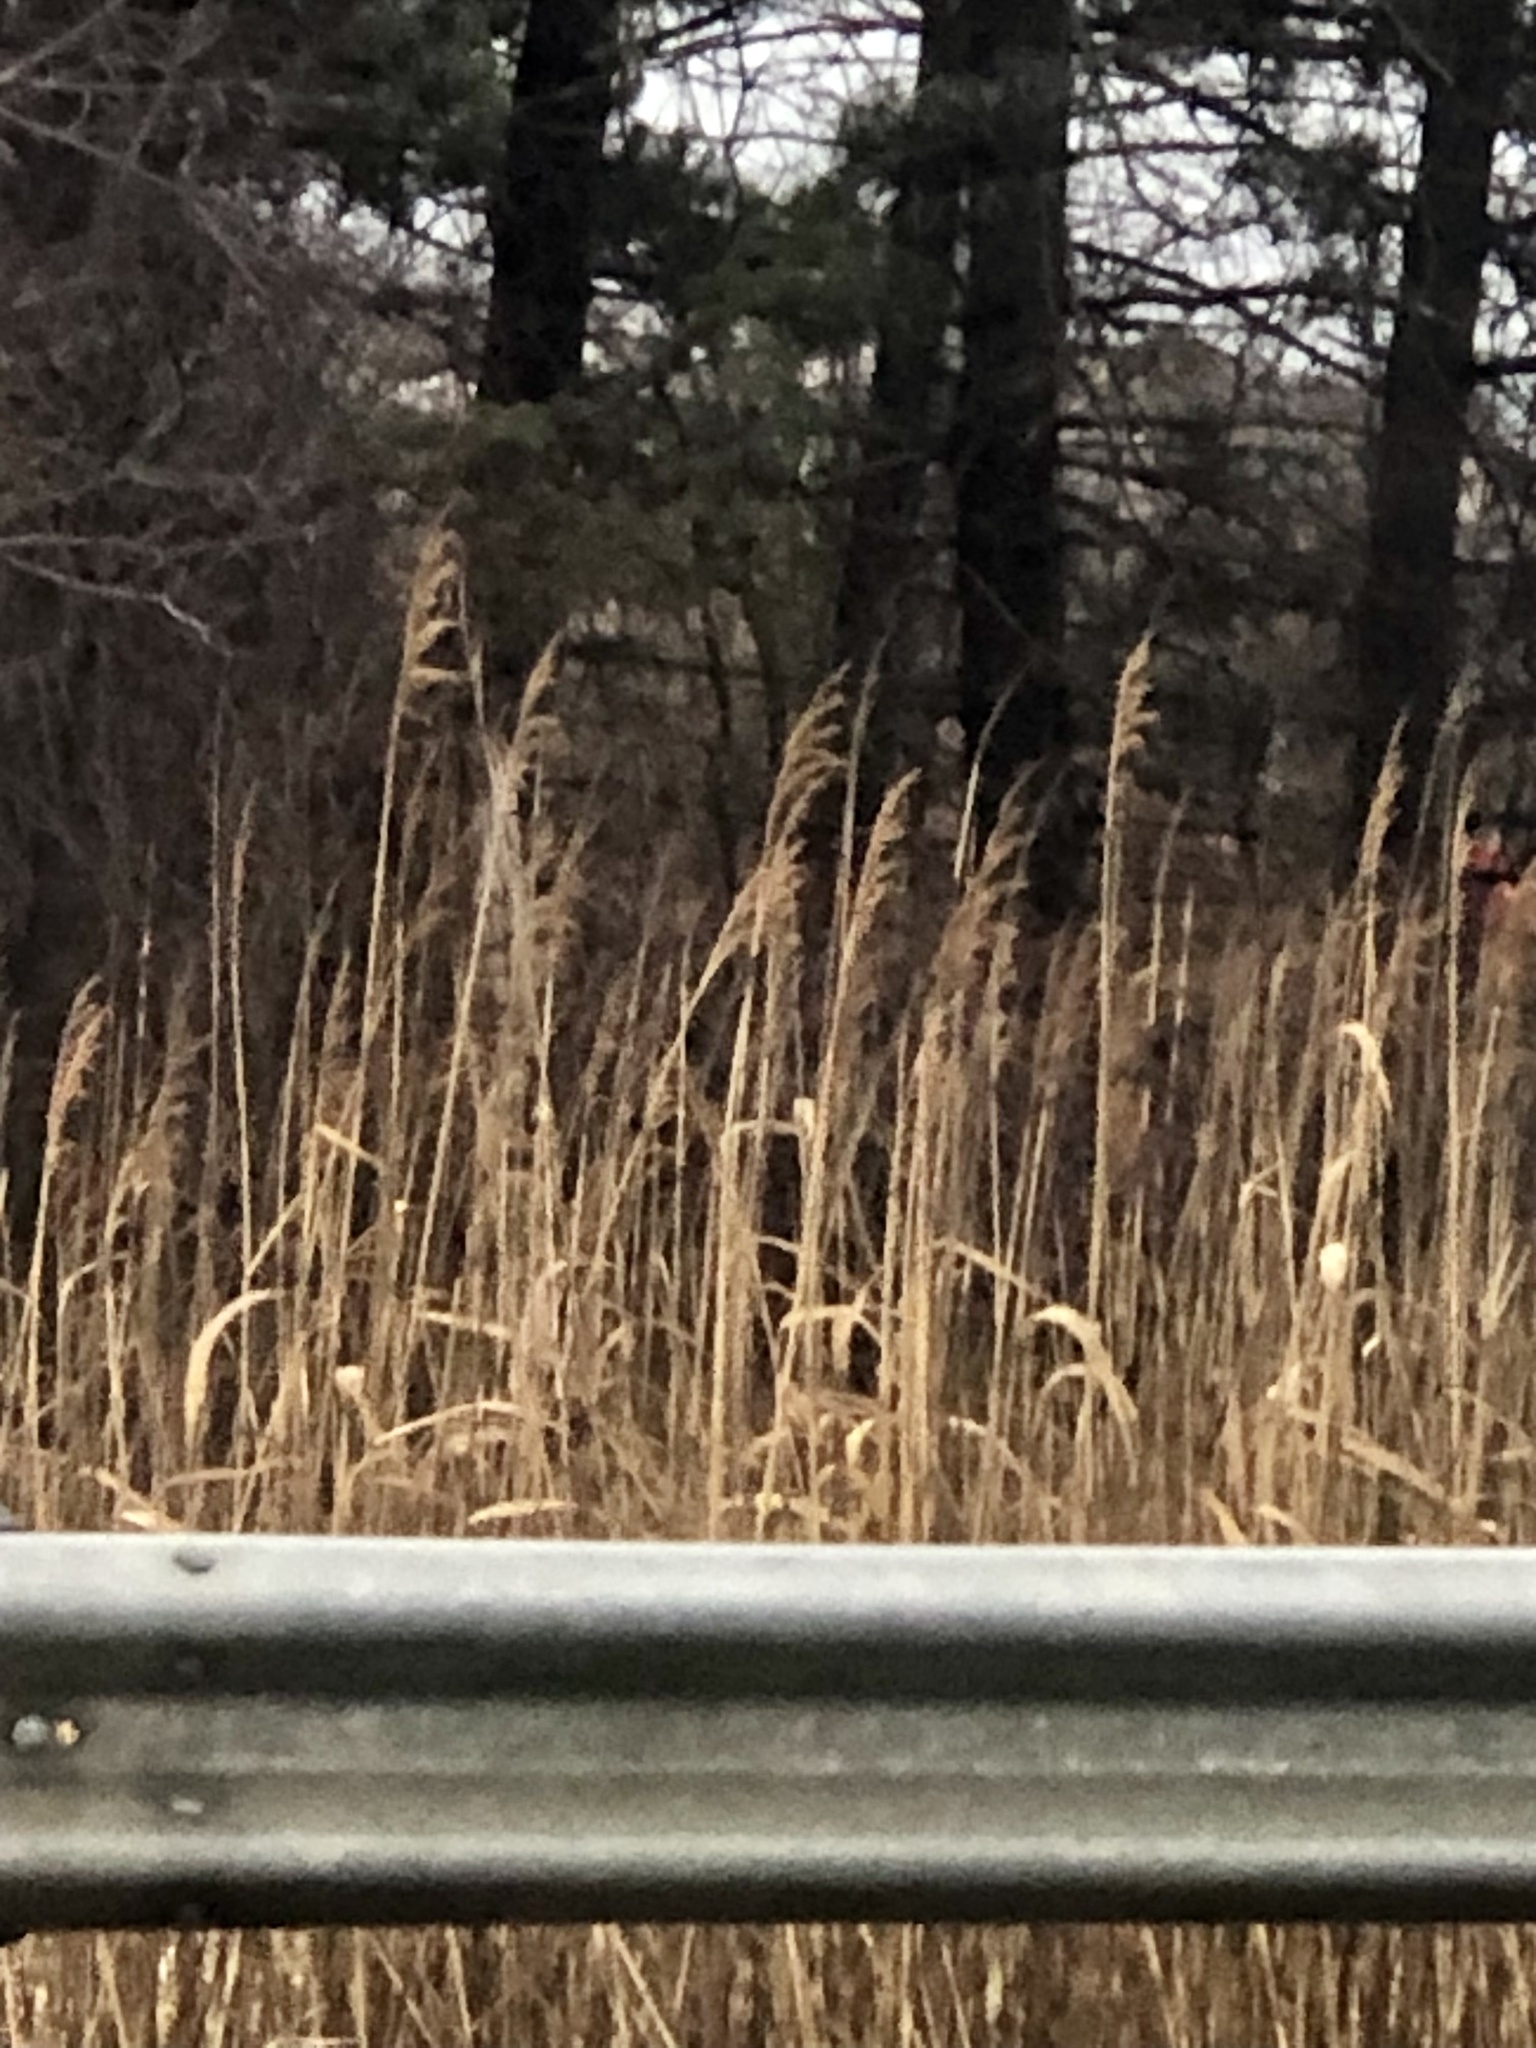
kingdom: Plantae
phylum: Tracheophyta
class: Liliopsida
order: Poales
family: Poaceae
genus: Phragmites
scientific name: Phragmites australis
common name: Common reed
